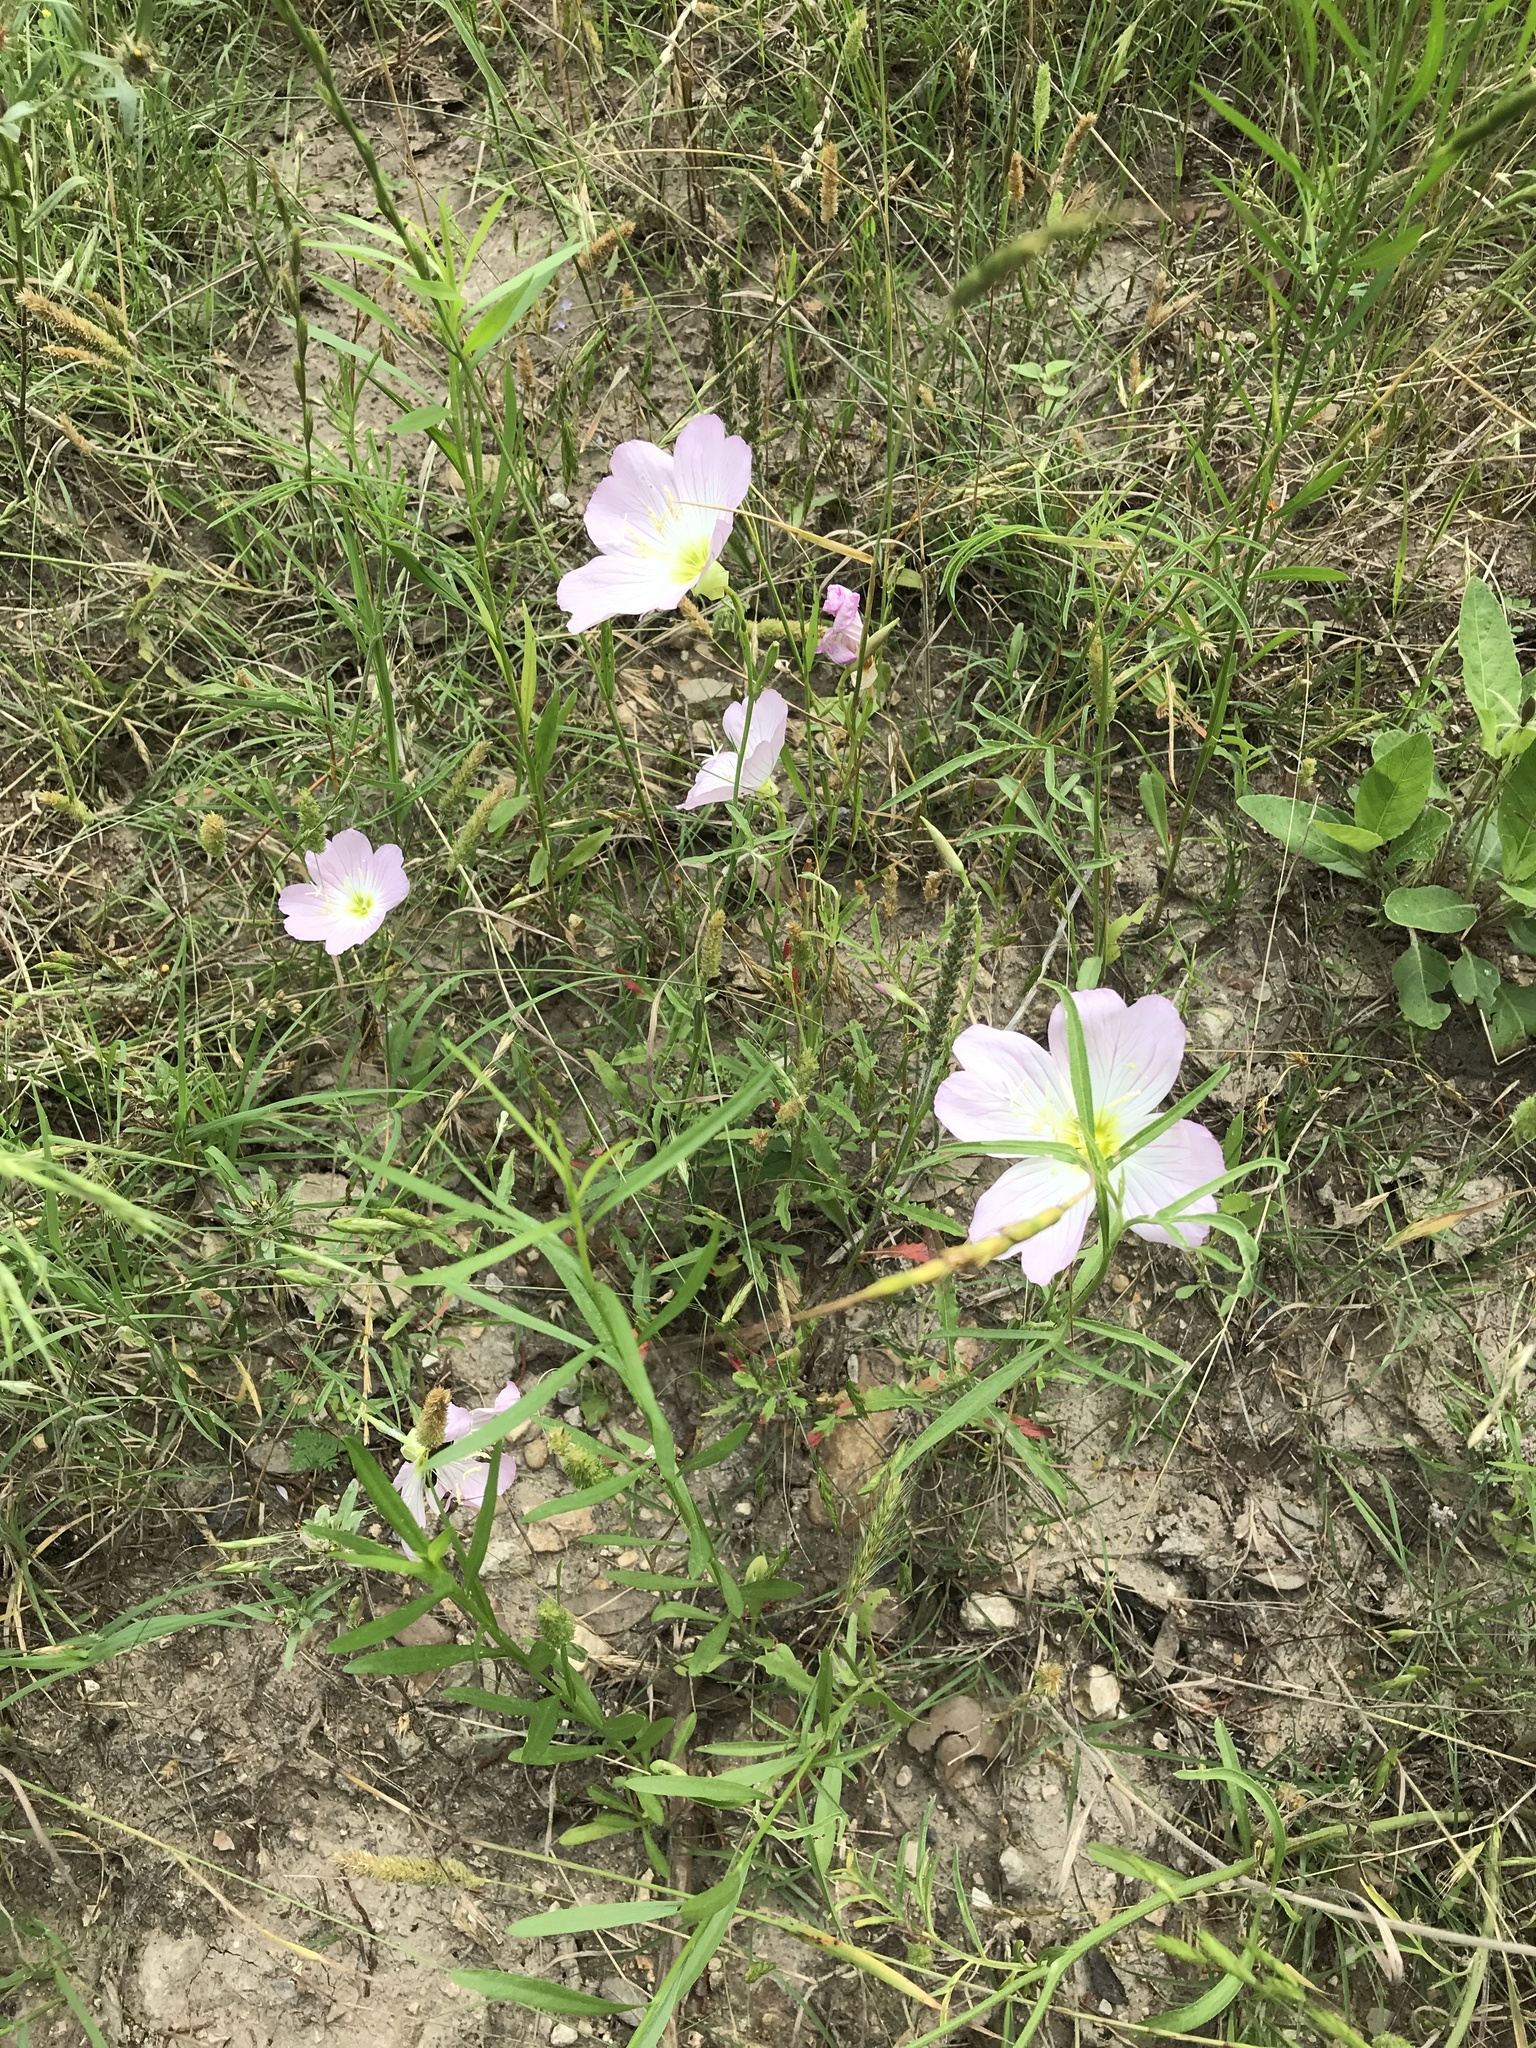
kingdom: Plantae
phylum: Tracheophyta
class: Magnoliopsida
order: Myrtales
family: Onagraceae
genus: Oenothera
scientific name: Oenothera speciosa
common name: White evening-primrose
